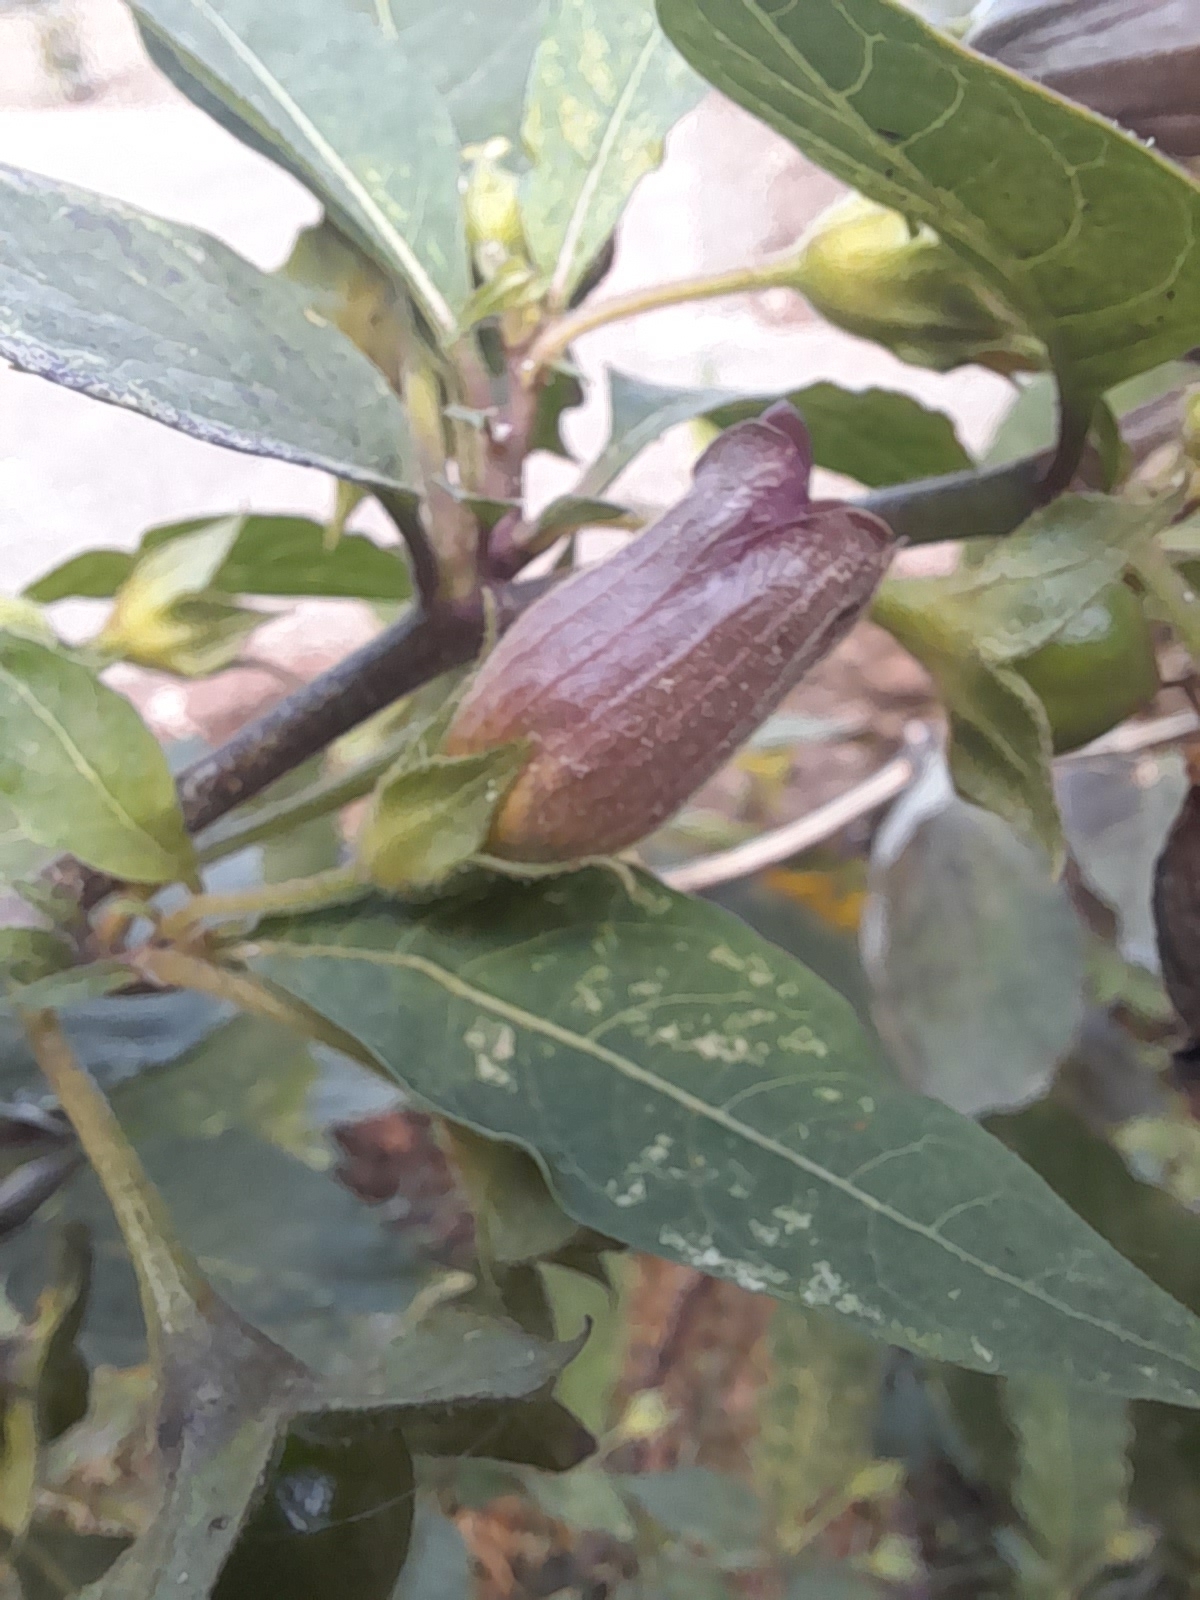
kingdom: Plantae
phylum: Tracheophyta
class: Magnoliopsida
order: Solanales
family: Solanaceae
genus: Atropa
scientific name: Atropa belladonna
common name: Deadly nightshade
